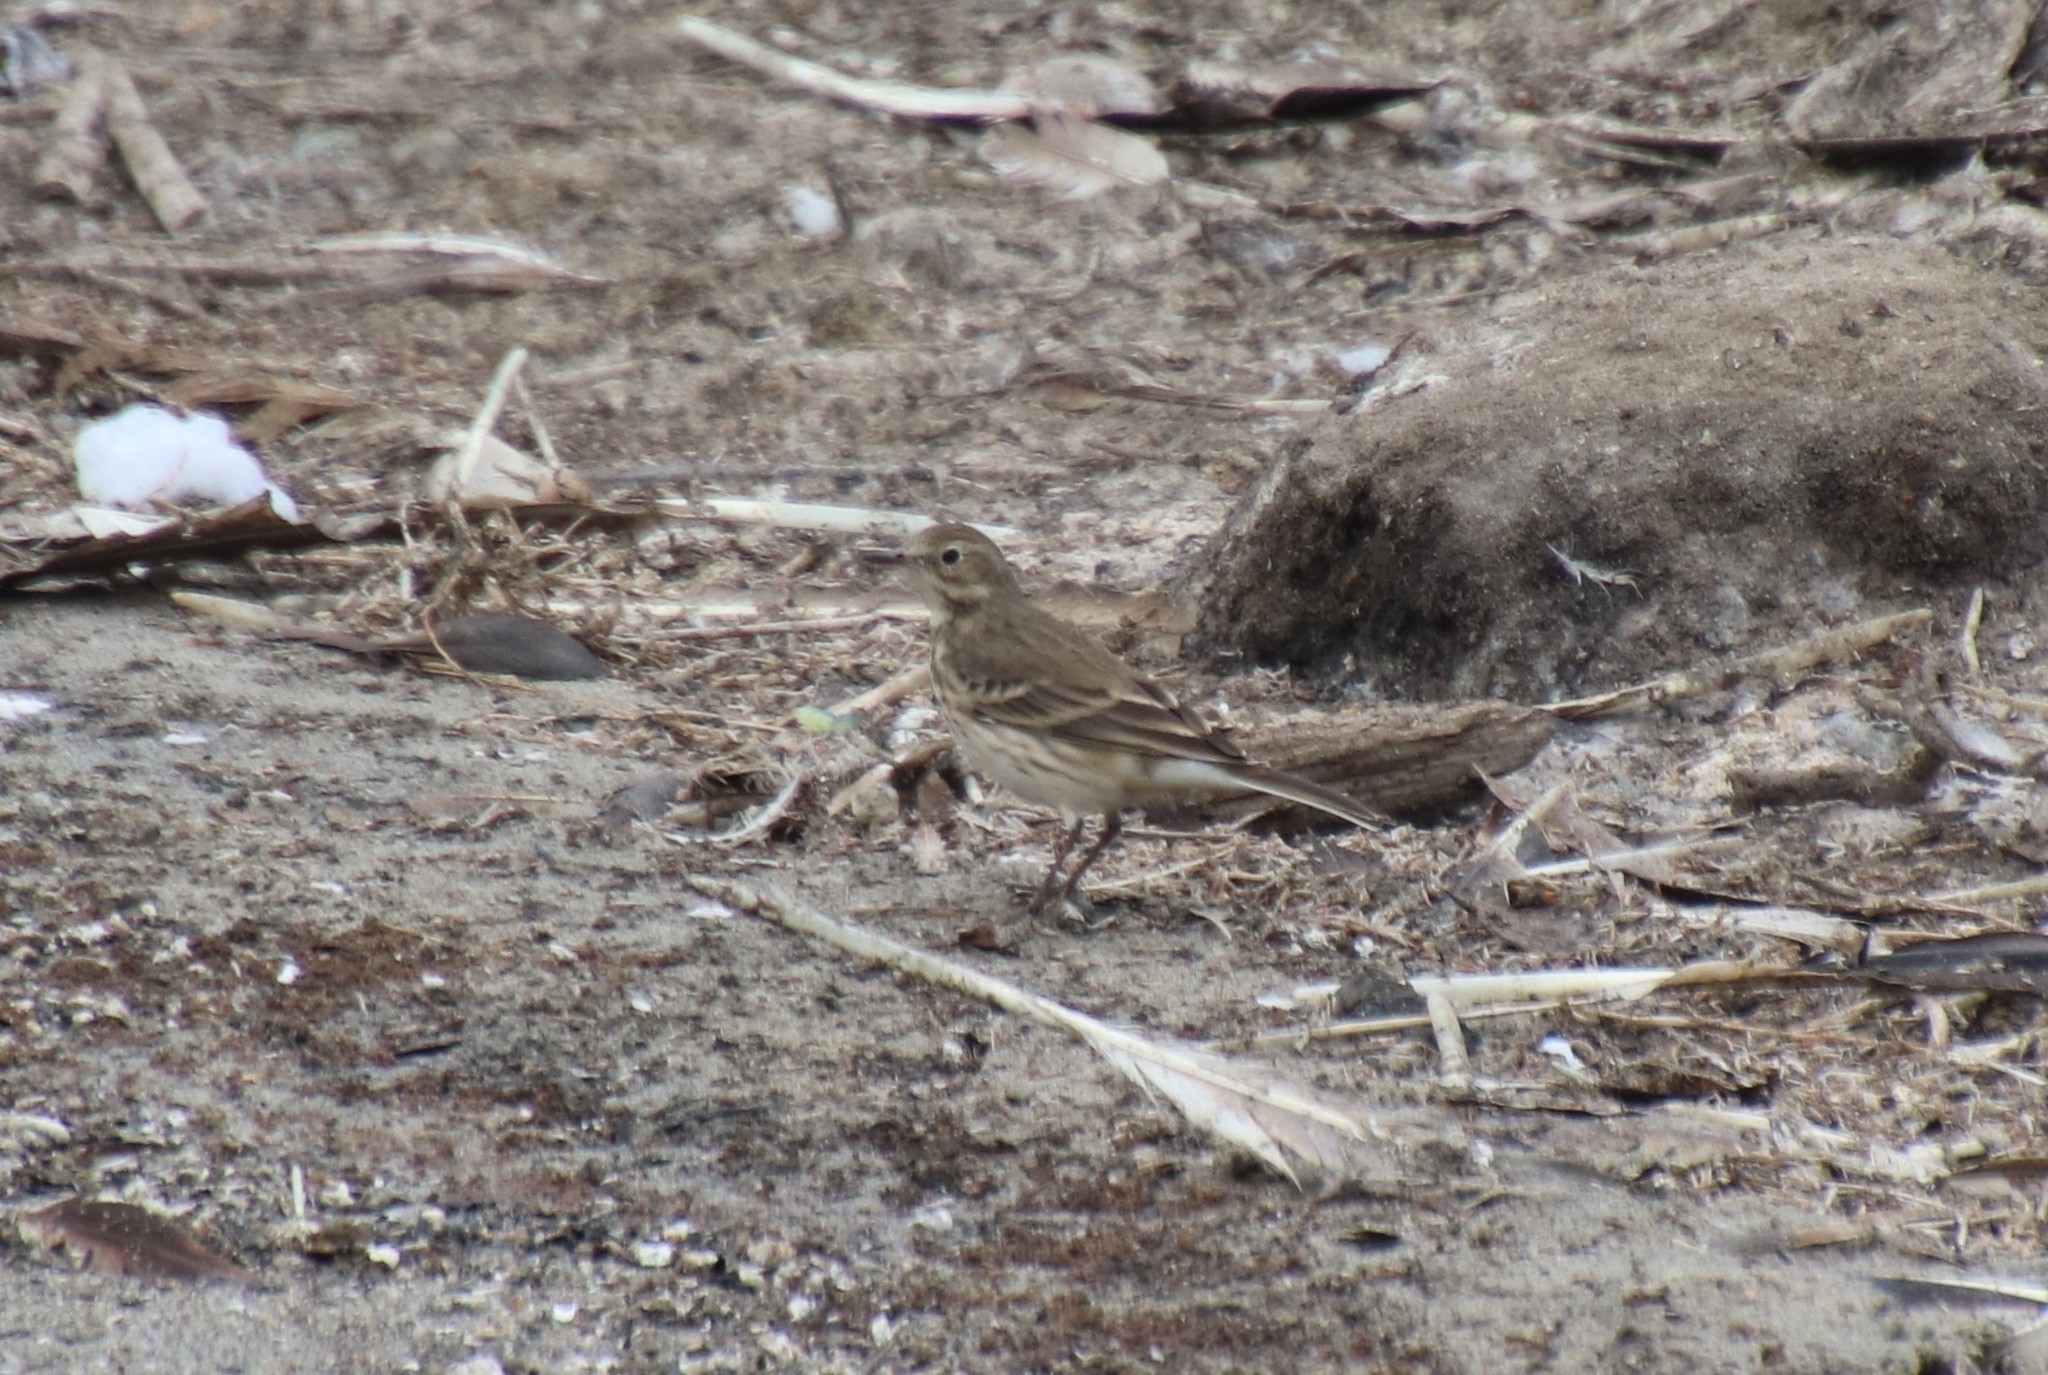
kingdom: Animalia
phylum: Chordata
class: Aves
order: Passeriformes
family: Motacillidae
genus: Anthus
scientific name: Anthus rubescens
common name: Buff-bellied pipit
